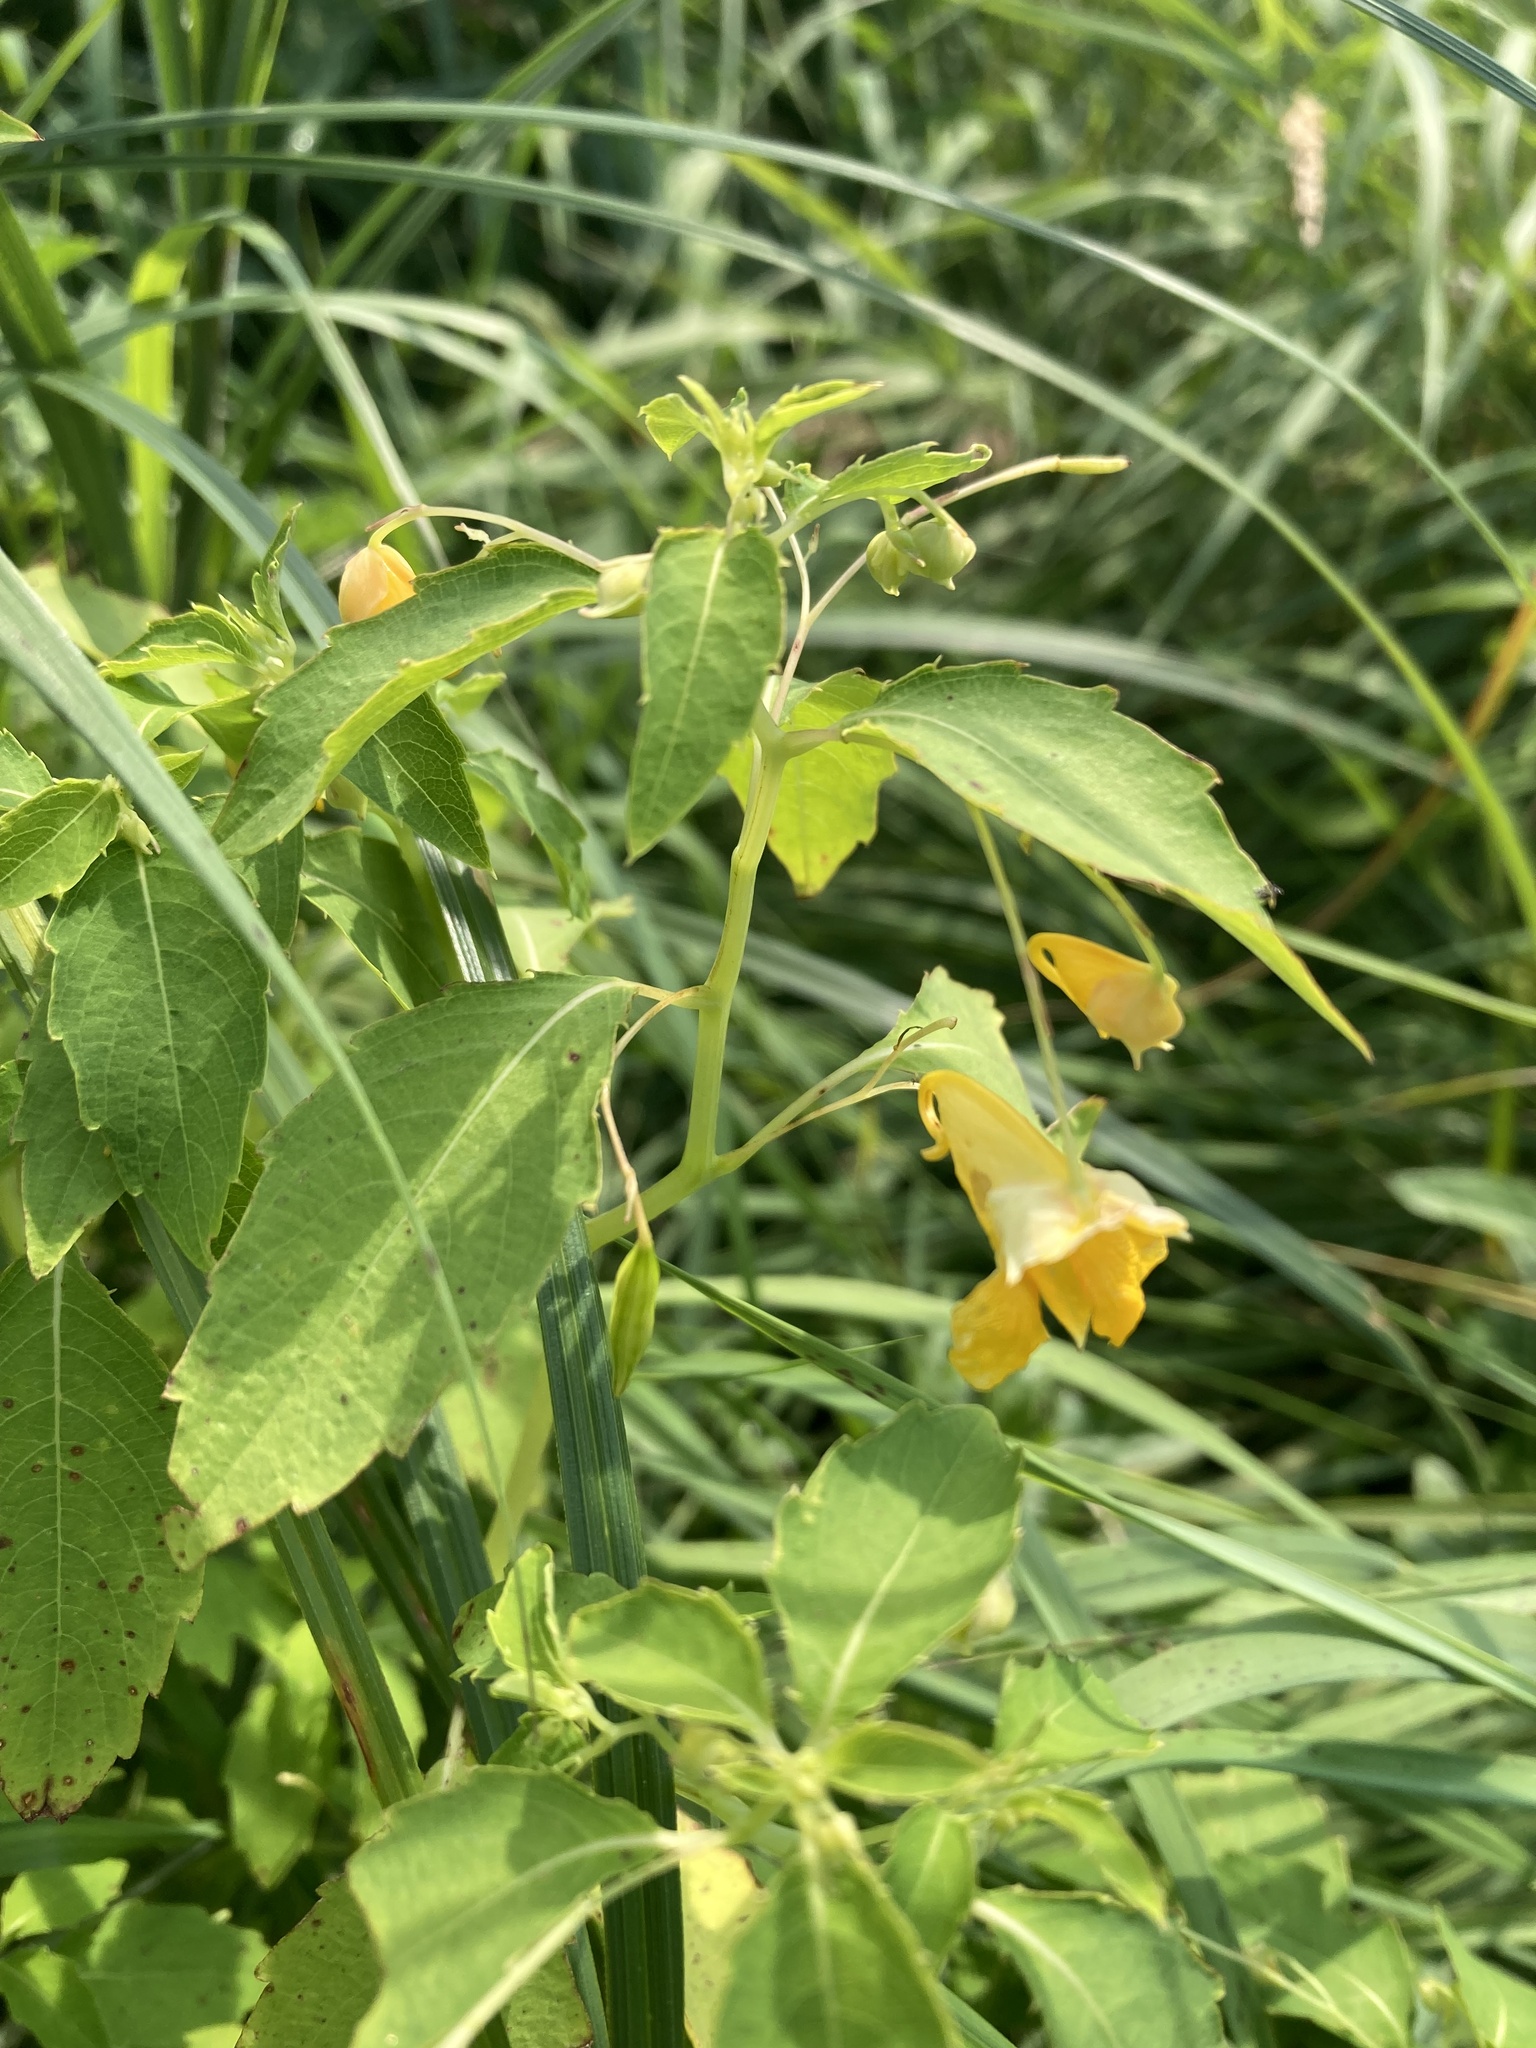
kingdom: Plantae
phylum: Tracheophyta
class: Magnoliopsida
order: Ericales
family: Balsaminaceae
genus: Impatiens
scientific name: Impatiens capensis
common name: Orange balsam
